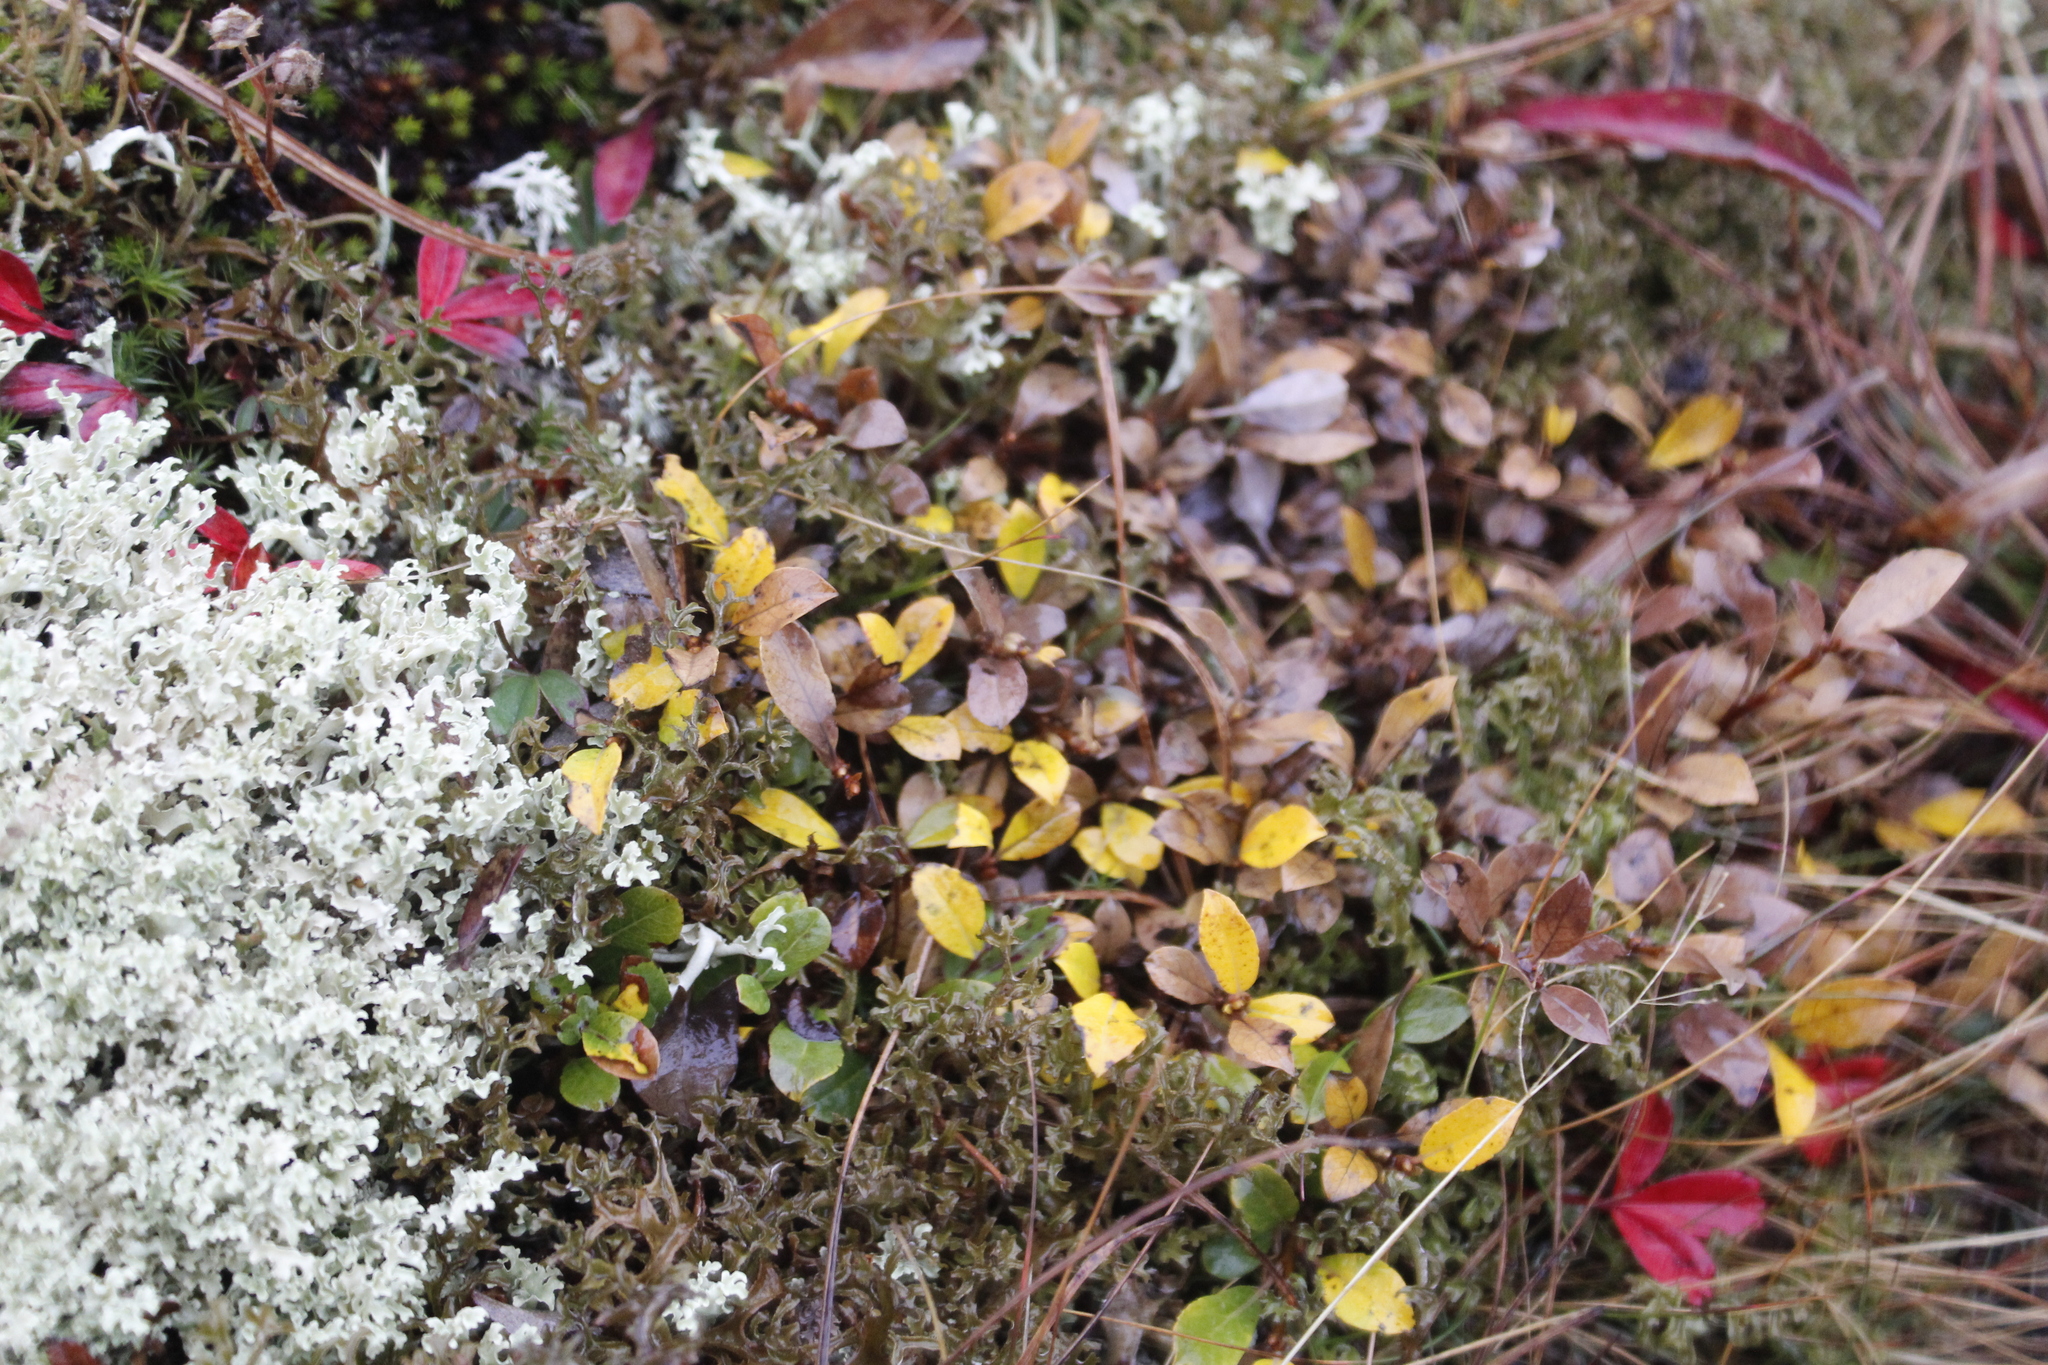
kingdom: Plantae
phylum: Tracheophyta
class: Magnoliopsida
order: Malpighiales
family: Salicaceae
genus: Salix
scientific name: Salix uva-ursi
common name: Bearberry willow
